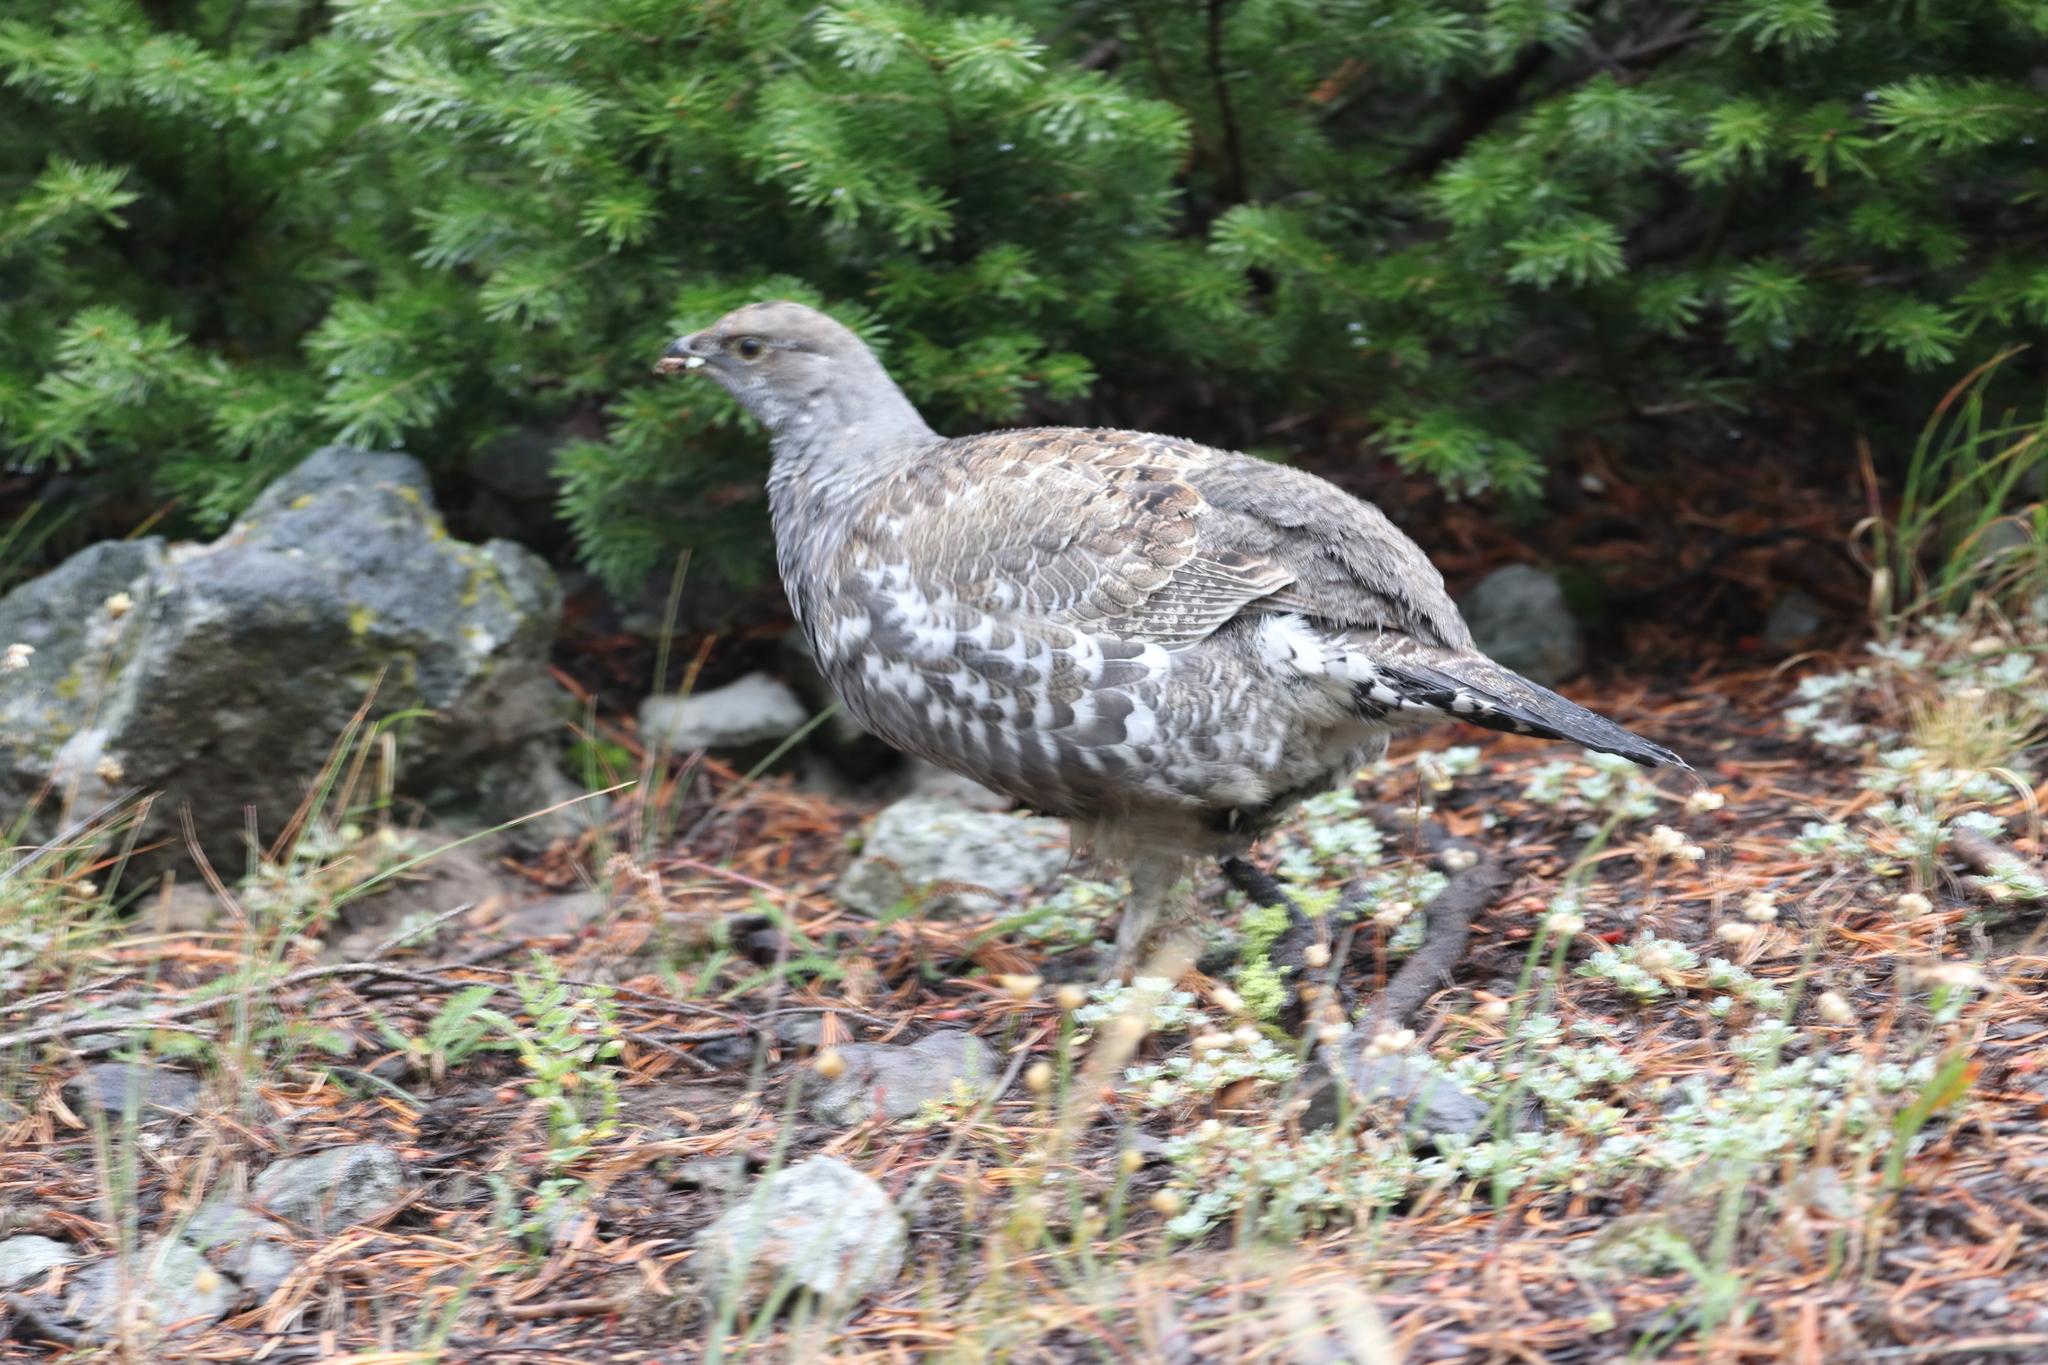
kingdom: Animalia
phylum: Chordata
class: Aves
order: Galliformes
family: Phasianidae
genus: Dendragapus
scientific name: Dendragapus obscurus
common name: Dusky grouse
